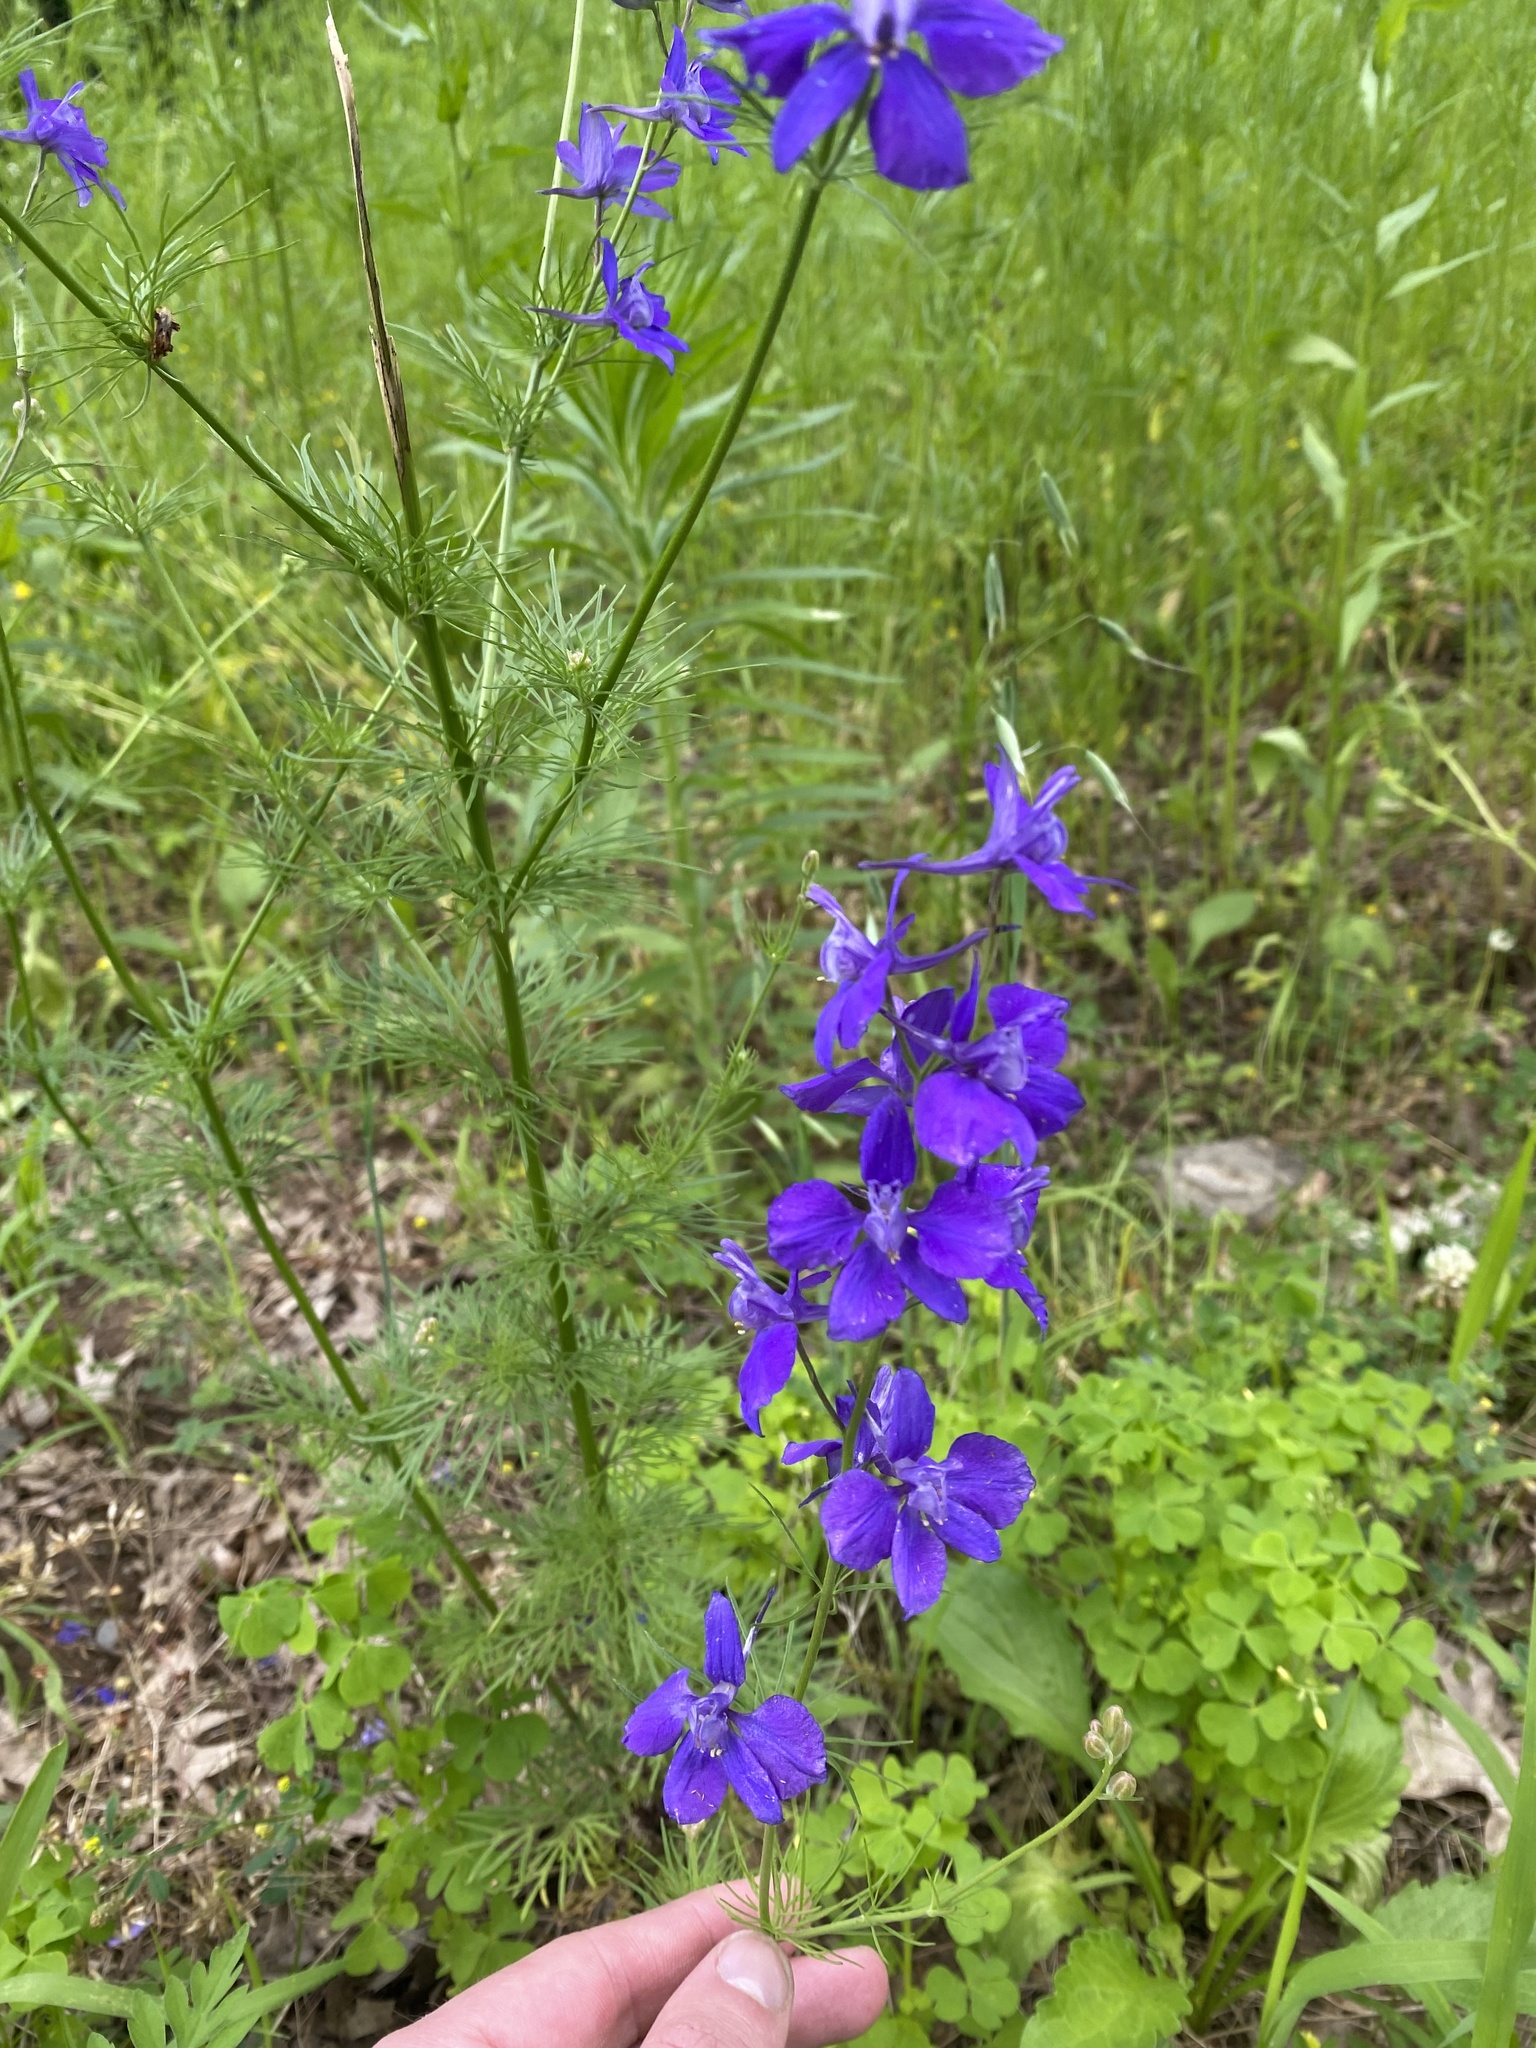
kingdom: Plantae
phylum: Tracheophyta
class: Magnoliopsida
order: Ranunculales
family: Ranunculaceae
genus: Delphinium
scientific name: Delphinium ajacis
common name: Doubtful knight's-spur
